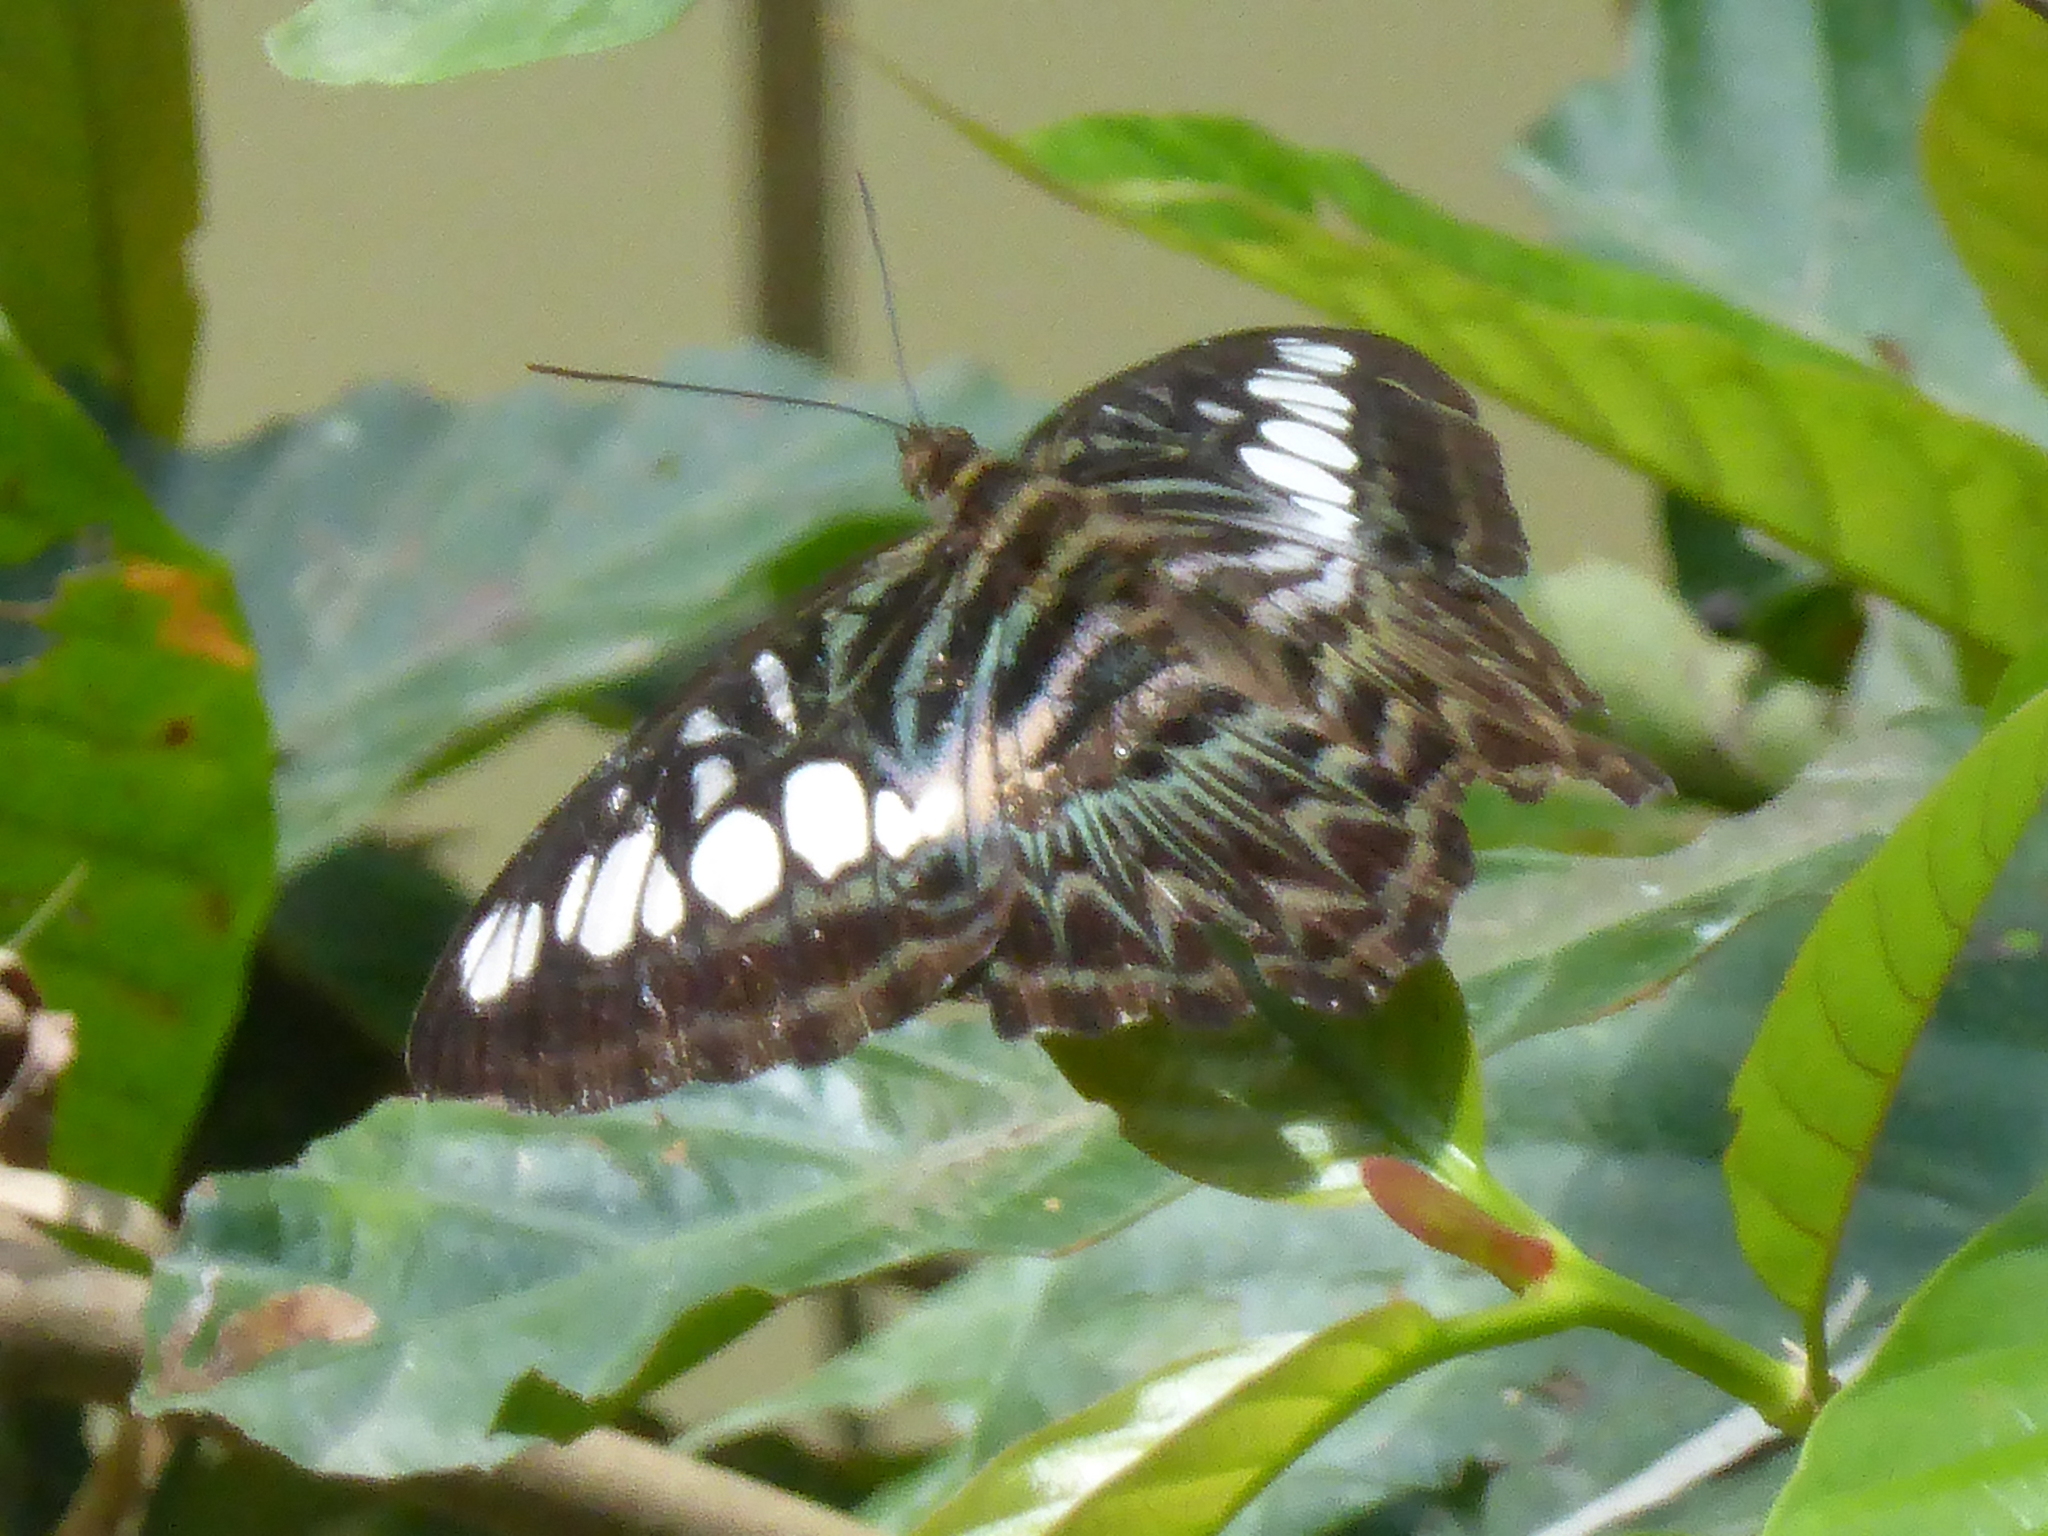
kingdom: Animalia
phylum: Arthropoda
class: Insecta
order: Lepidoptera
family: Nymphalidae
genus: Kallima
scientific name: Kallima sylvia
